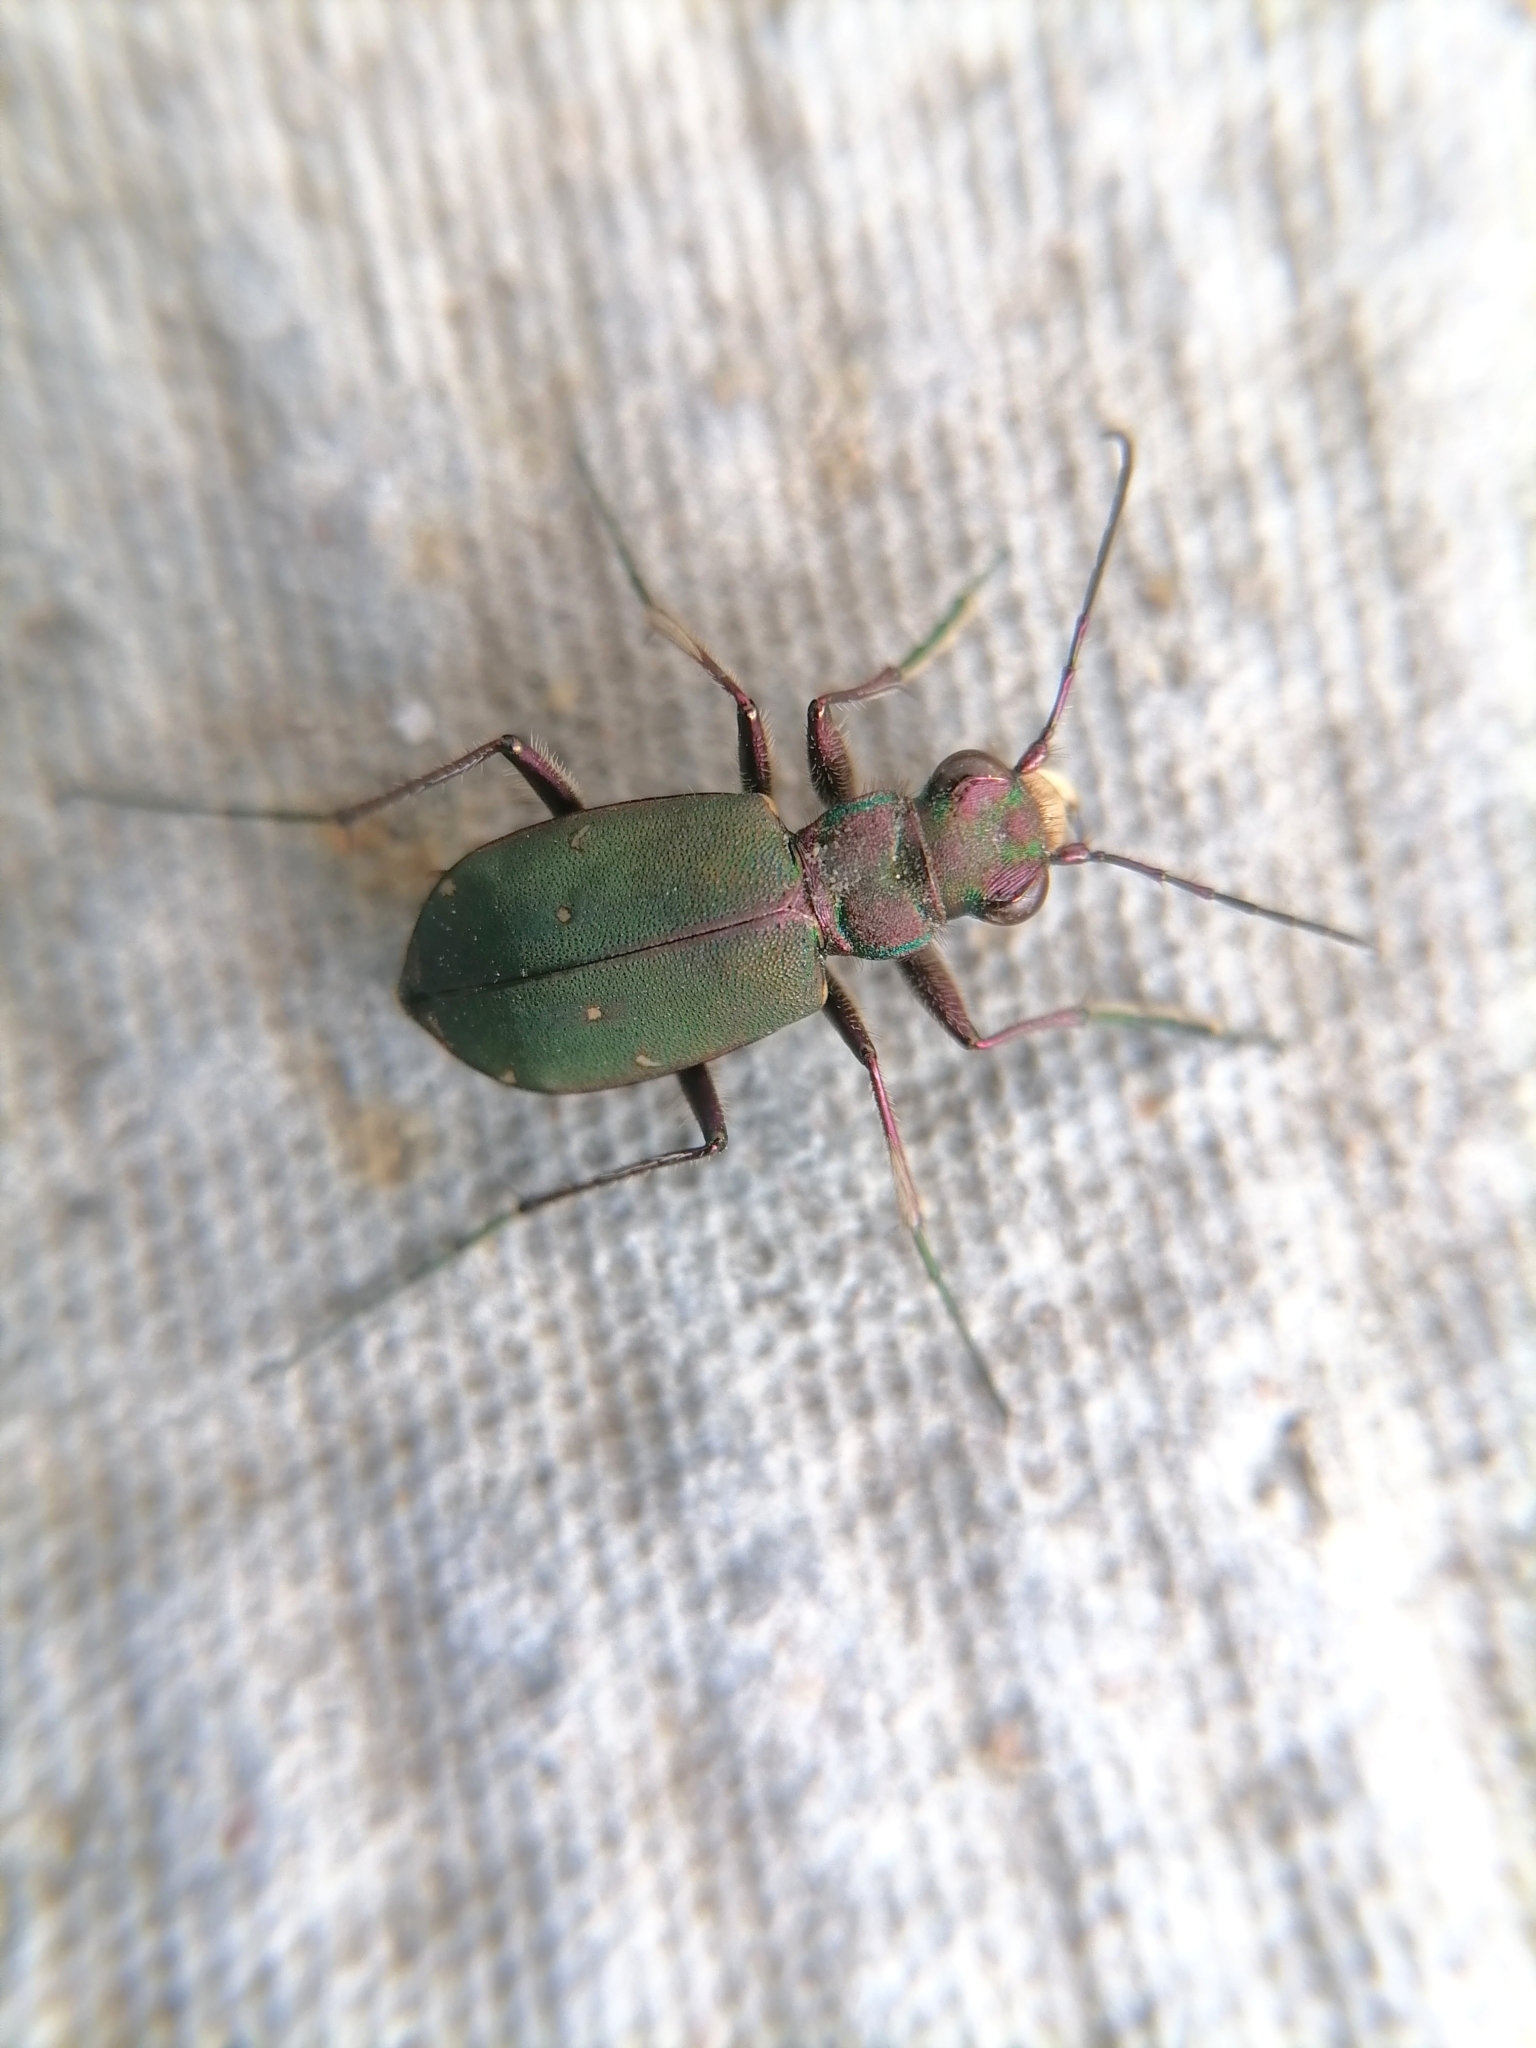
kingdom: Animalia
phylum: Arthropoda
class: Insecta
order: Coleoptera
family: Carabidae
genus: Cicindela
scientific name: Cicindela campestris
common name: Common tiger beetle
